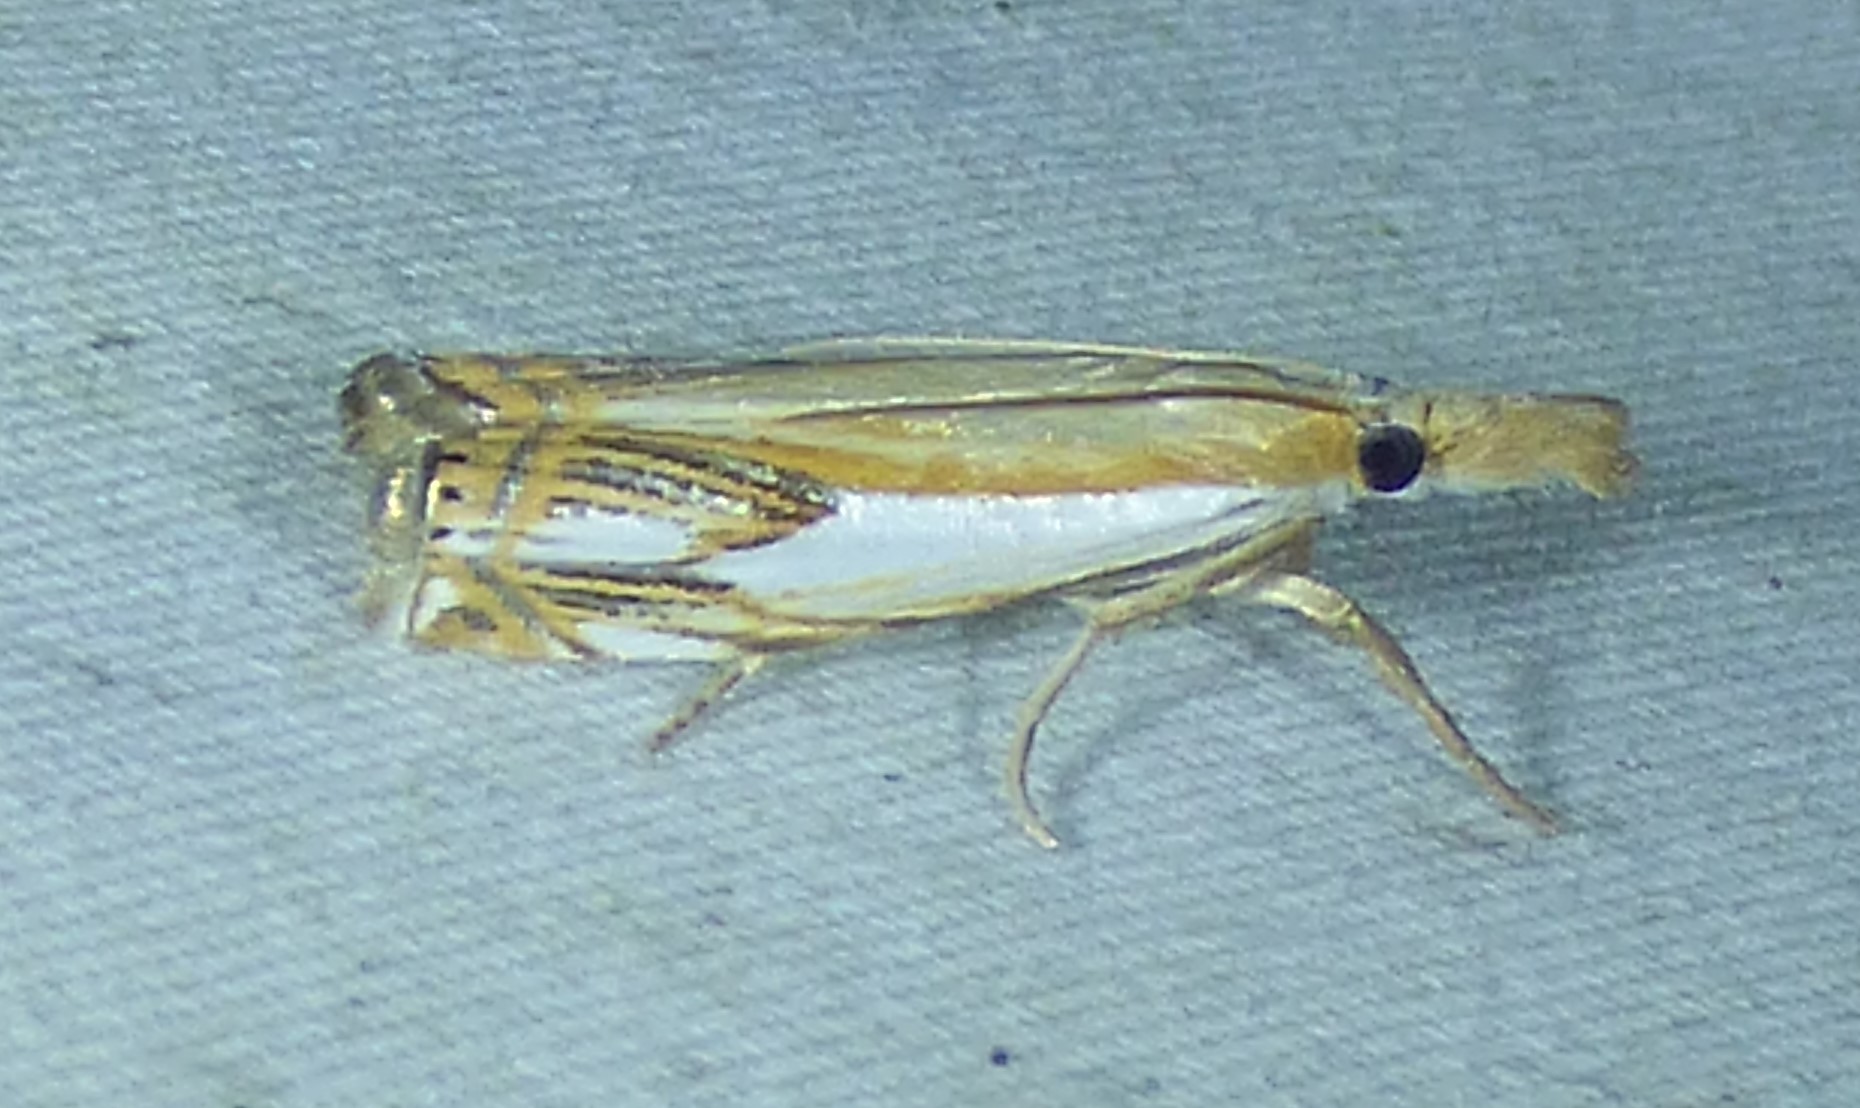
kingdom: Animalia
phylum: Arthropoda
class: Insecta
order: Lepidoptera
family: Crambidae
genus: Crambus
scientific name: Crambus agitatellus
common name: Double-banded grass-veneer
